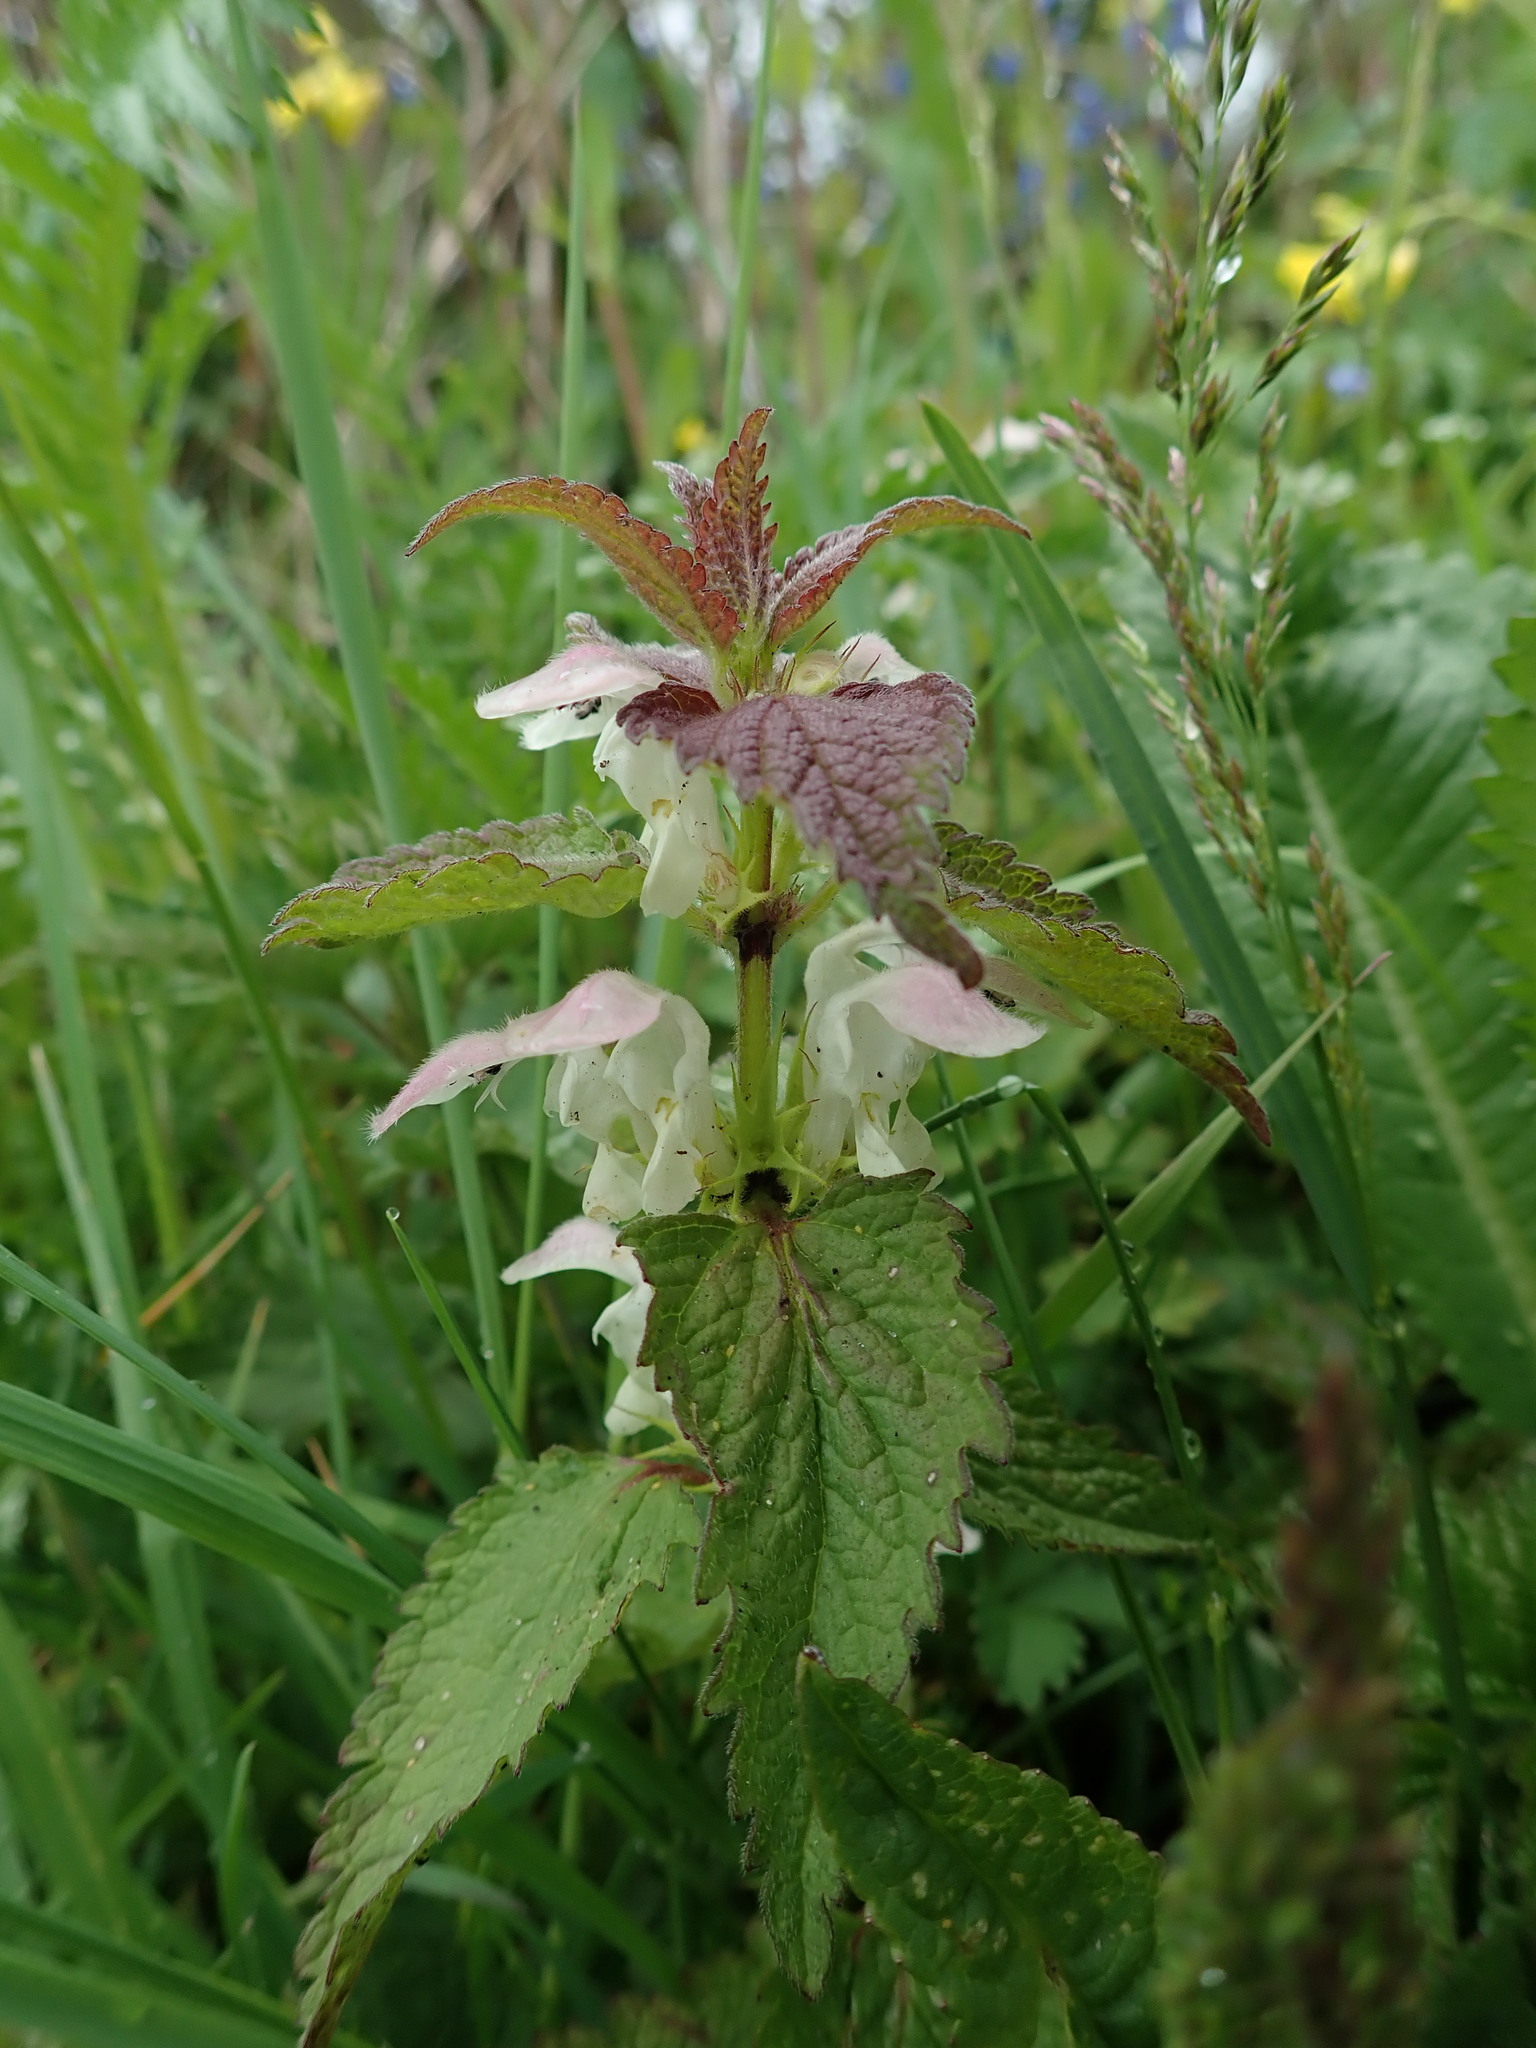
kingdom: Plantae
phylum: Tracheophyta
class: Magnoliopsida
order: Lamiales
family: Lamiaceae
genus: Lamium
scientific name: Lamium album
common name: White dead-nettle
